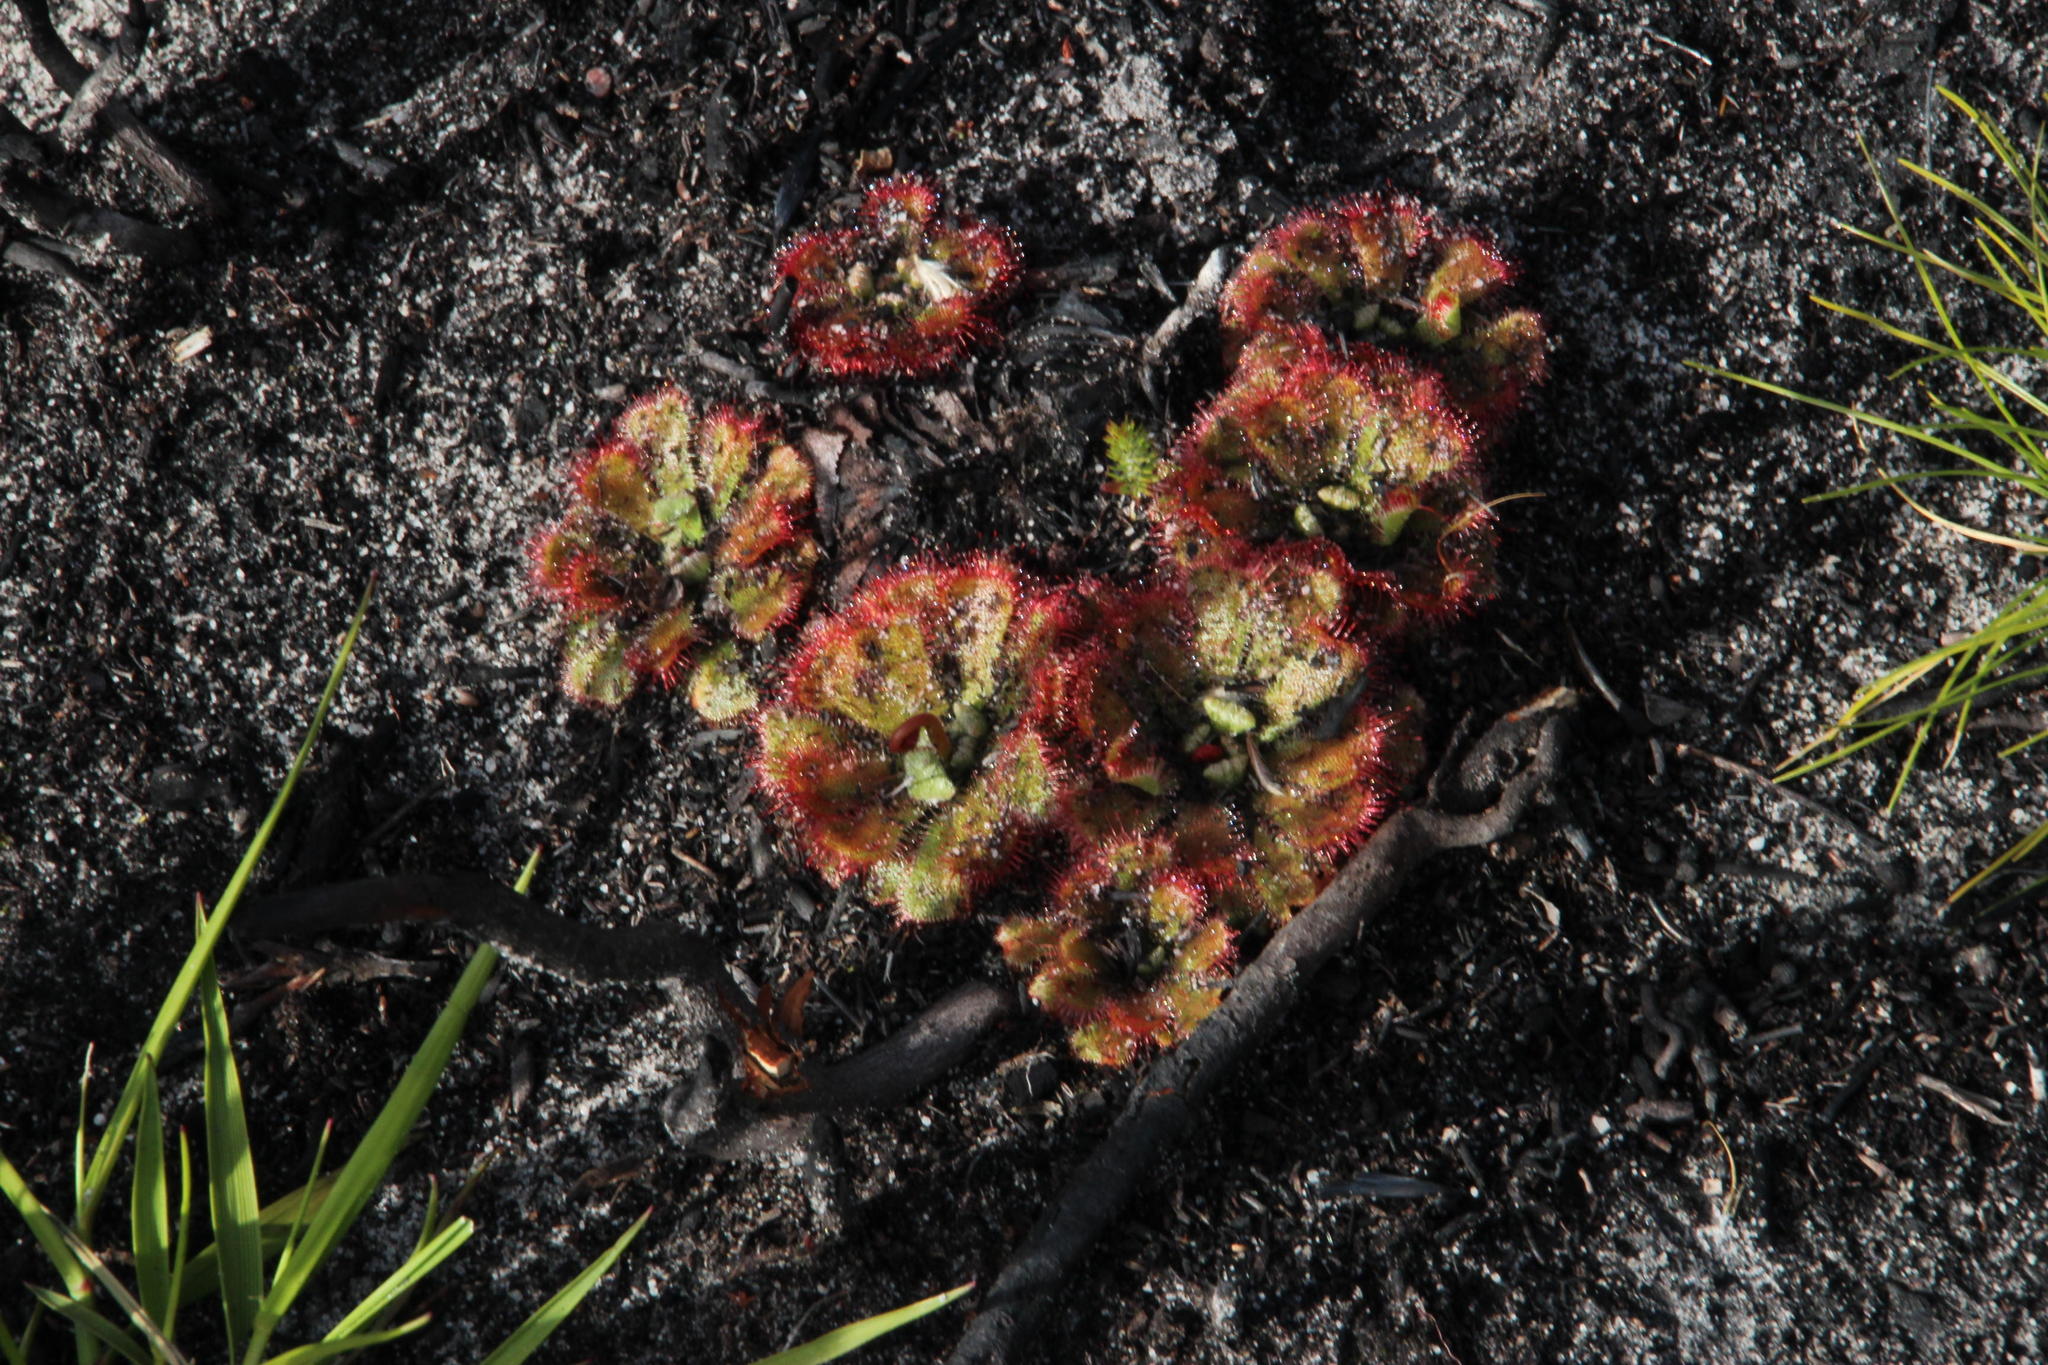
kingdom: Plantae
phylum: Tracheophyta
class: Magnoliopsida
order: Caryophyllales
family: Droseraceae
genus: Drosera
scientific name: Drosera trinervia
